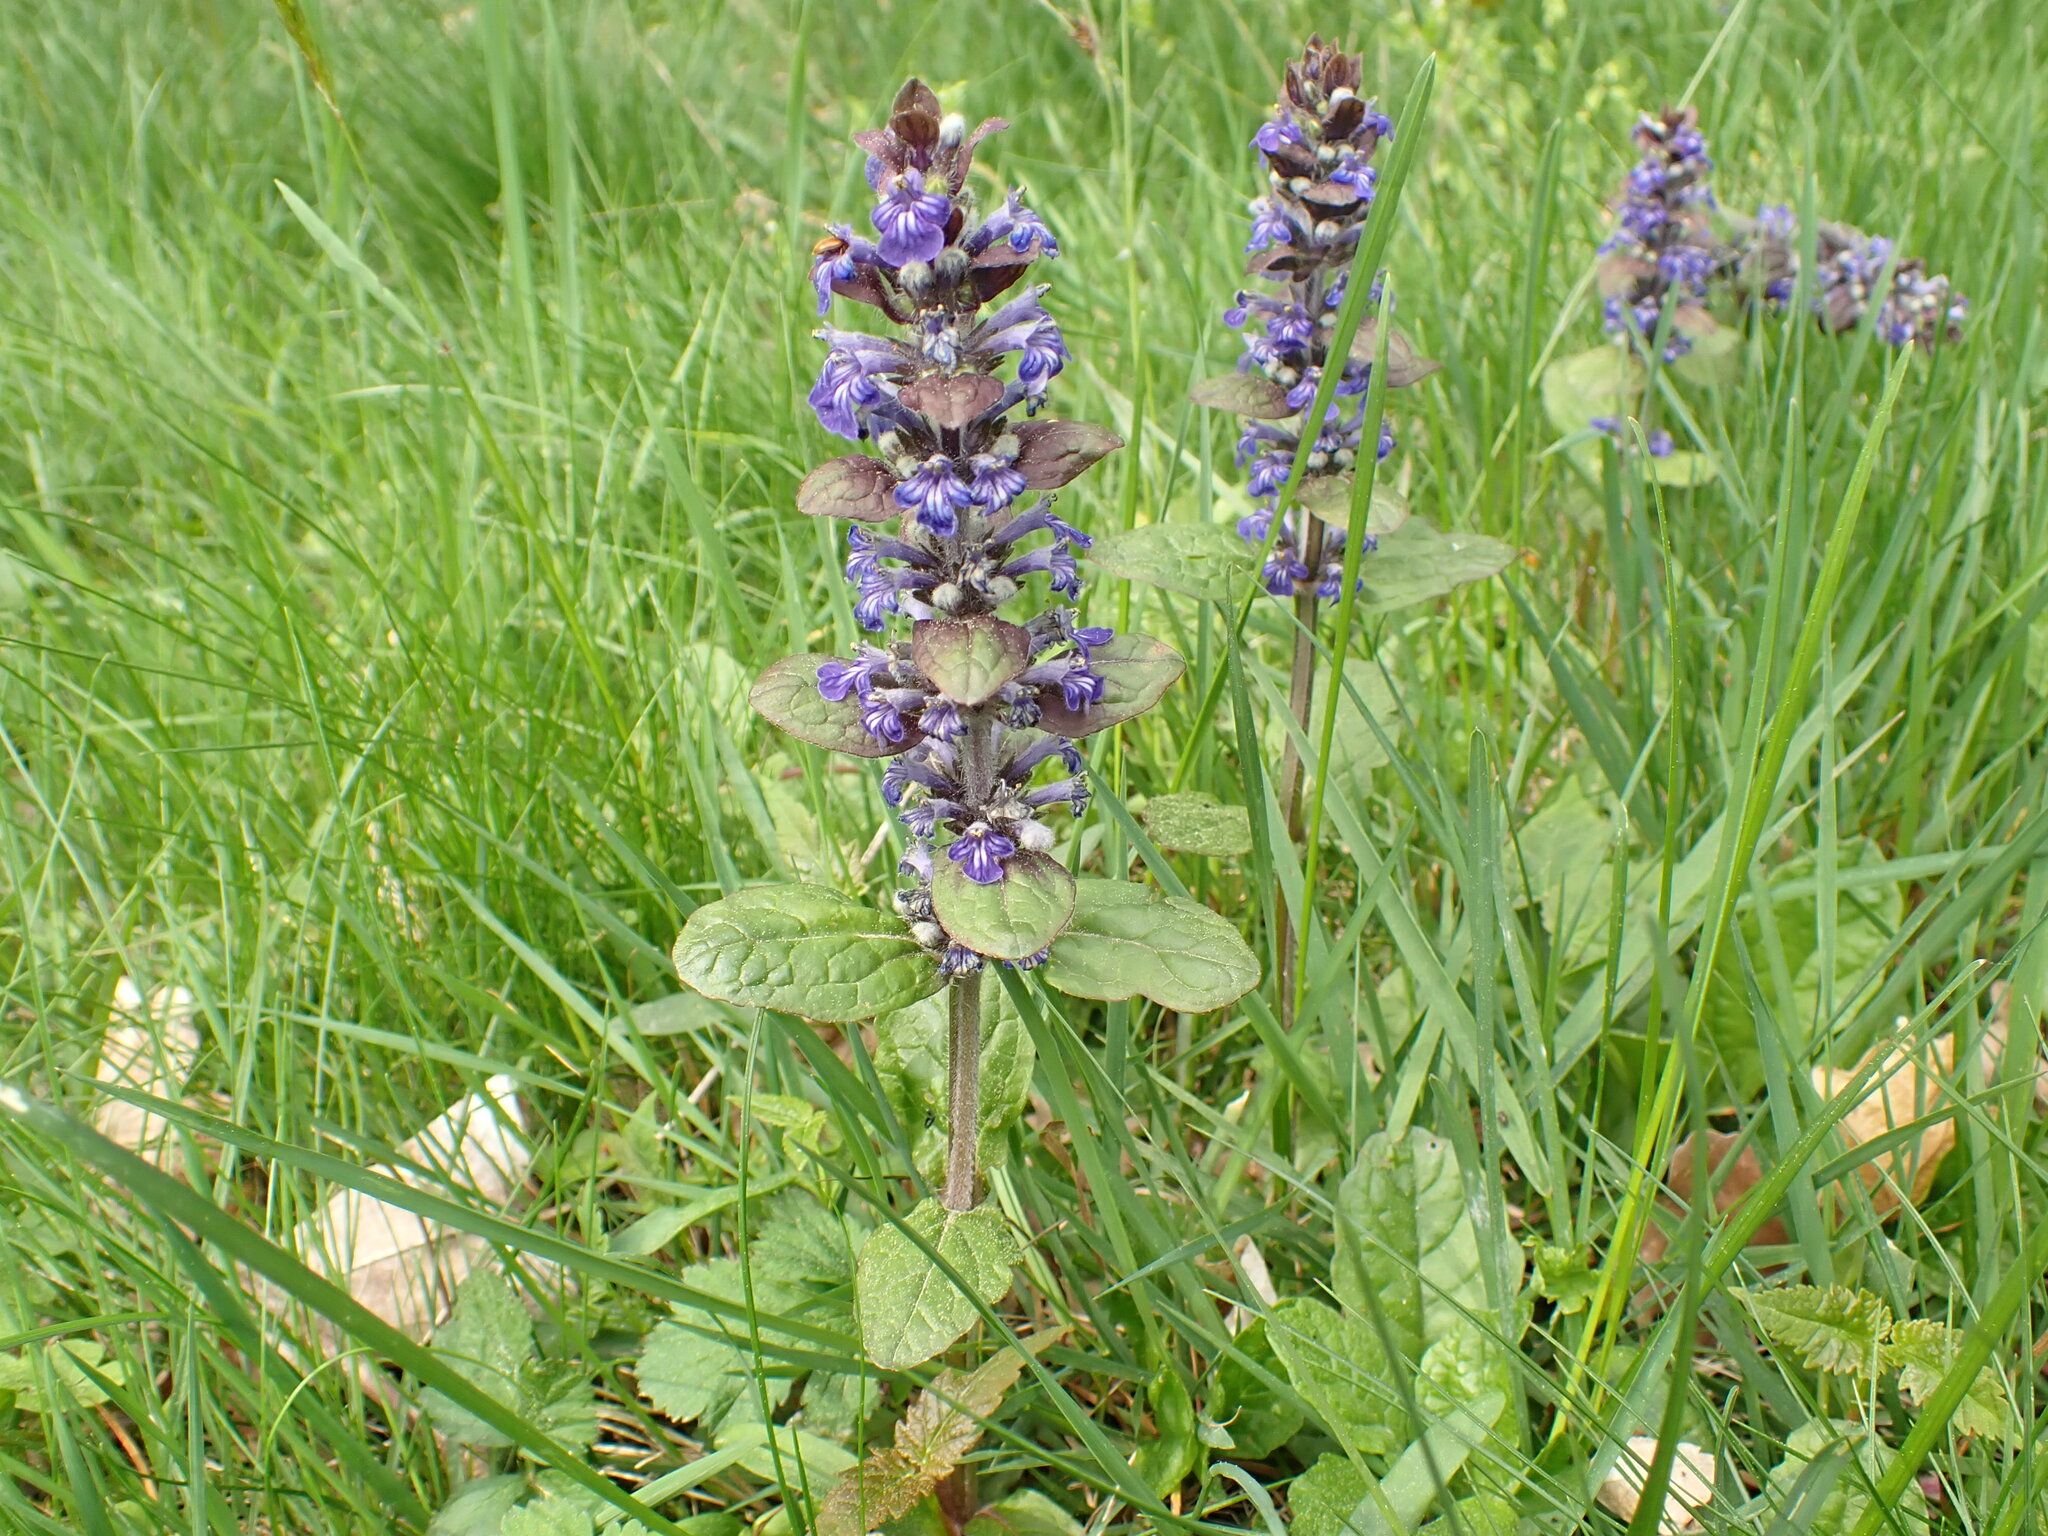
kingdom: Plantae
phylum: Tracheophyta
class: Magnoliopsida
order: Lamiales
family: Lamiaceae
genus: Ajuga
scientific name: Ajuga reptans
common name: Bugle
